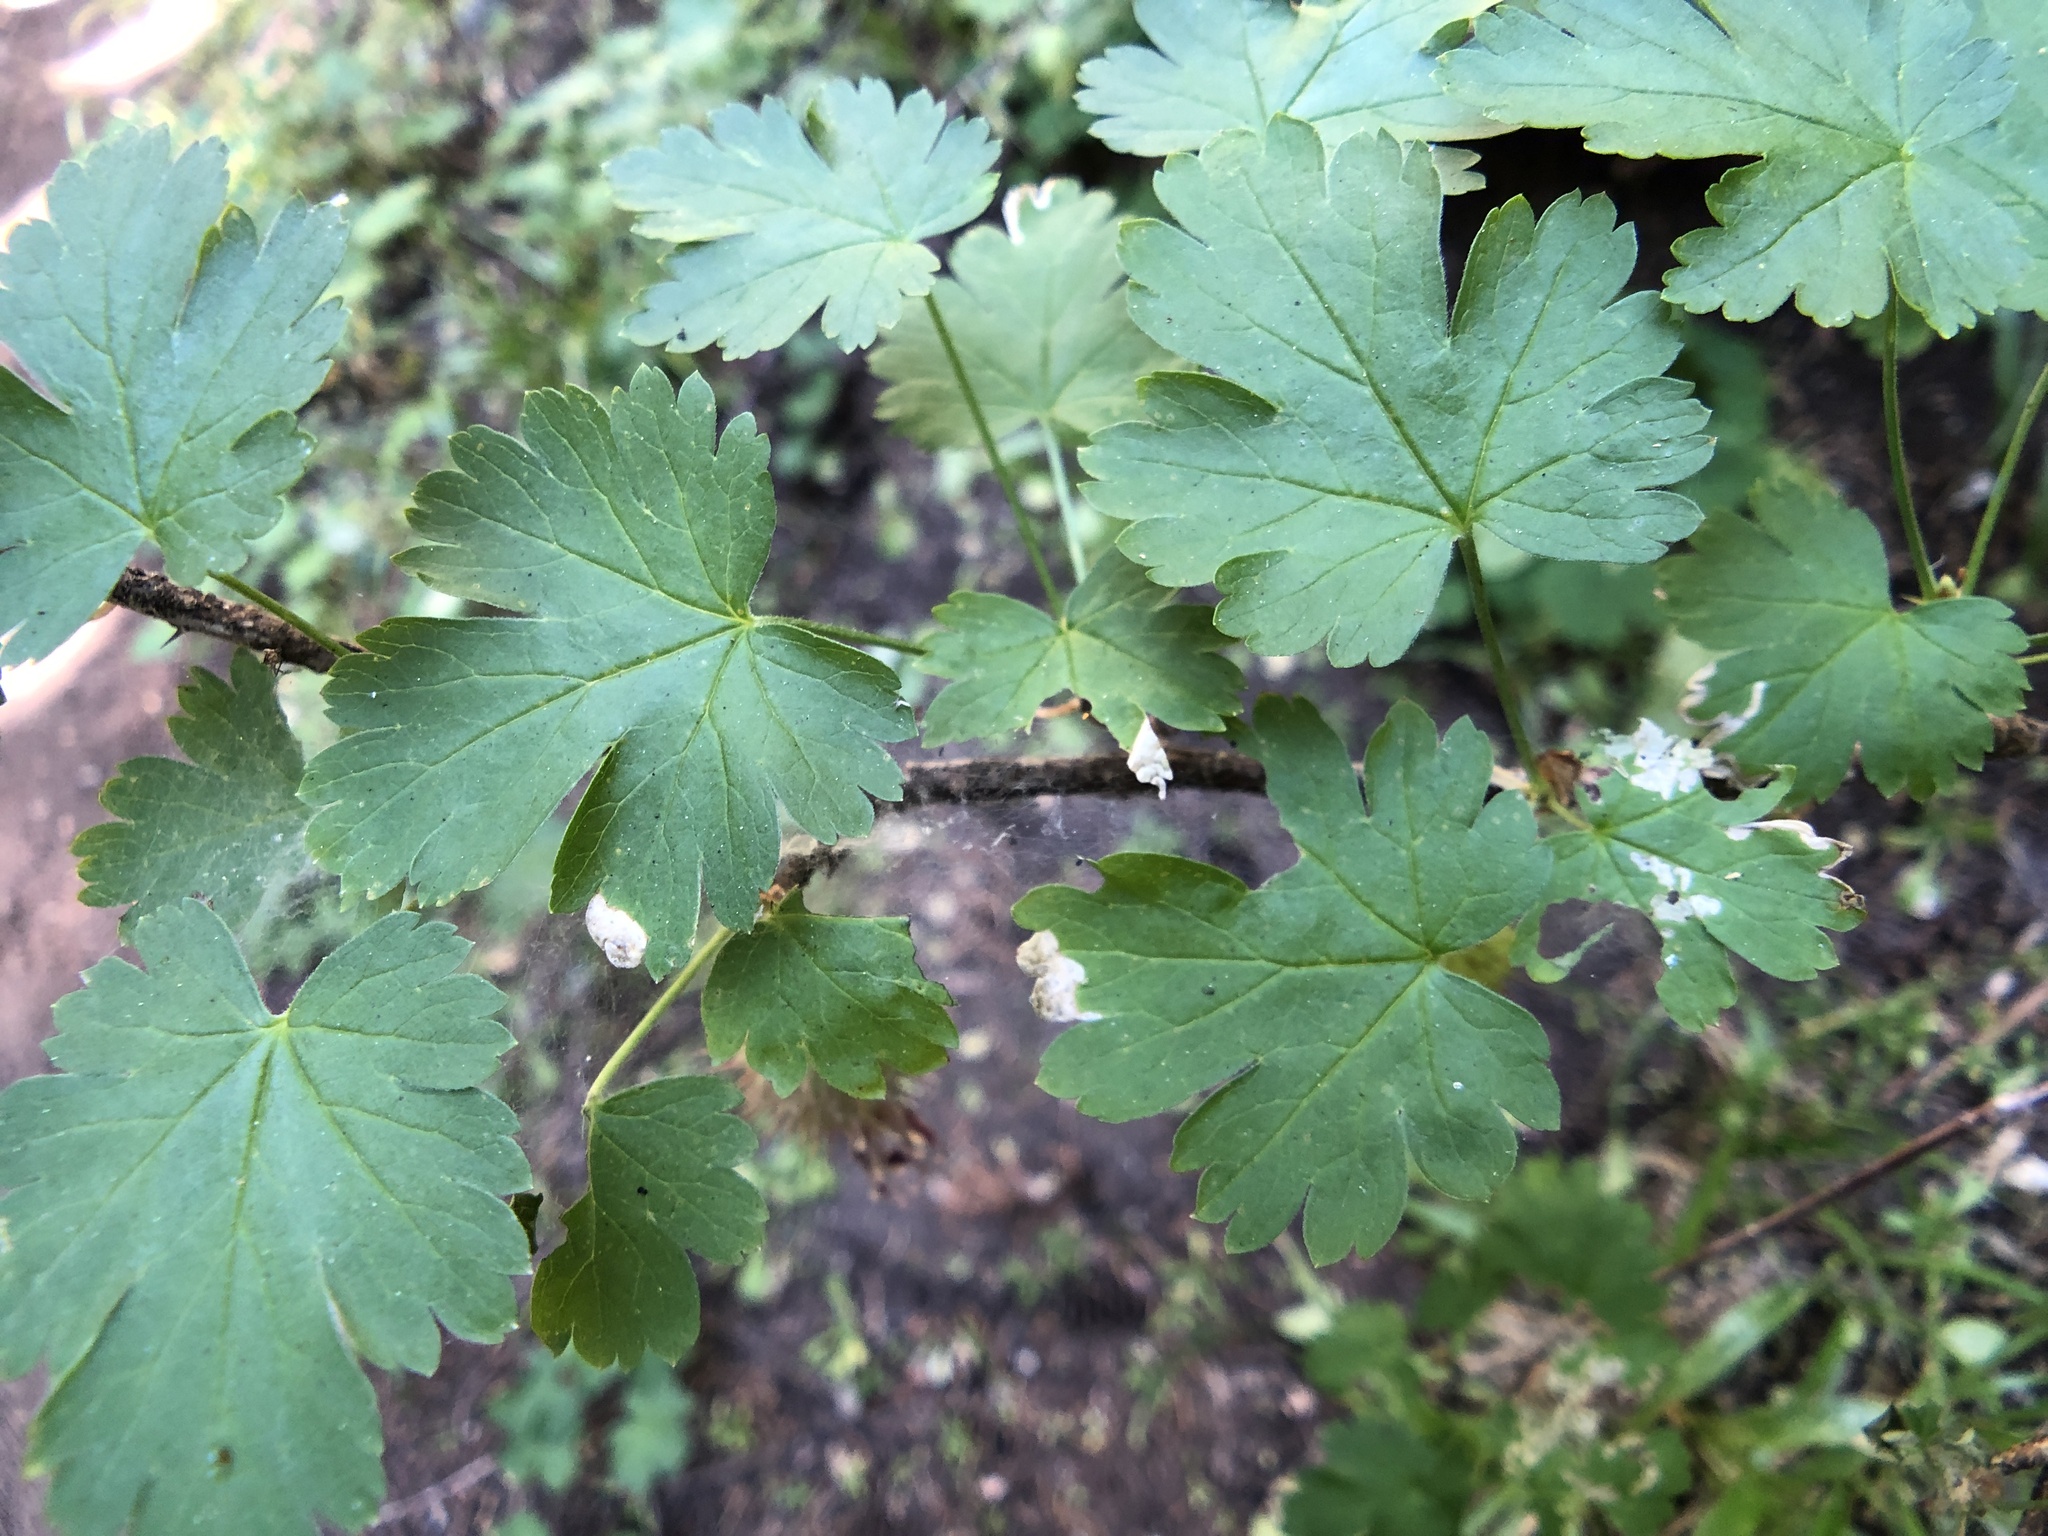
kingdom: Plantae
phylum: Tracheophyta
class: Magnoliopsida
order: Saxifragales
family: Grossulariaceae
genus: Ribes
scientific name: Ribes marshallii
